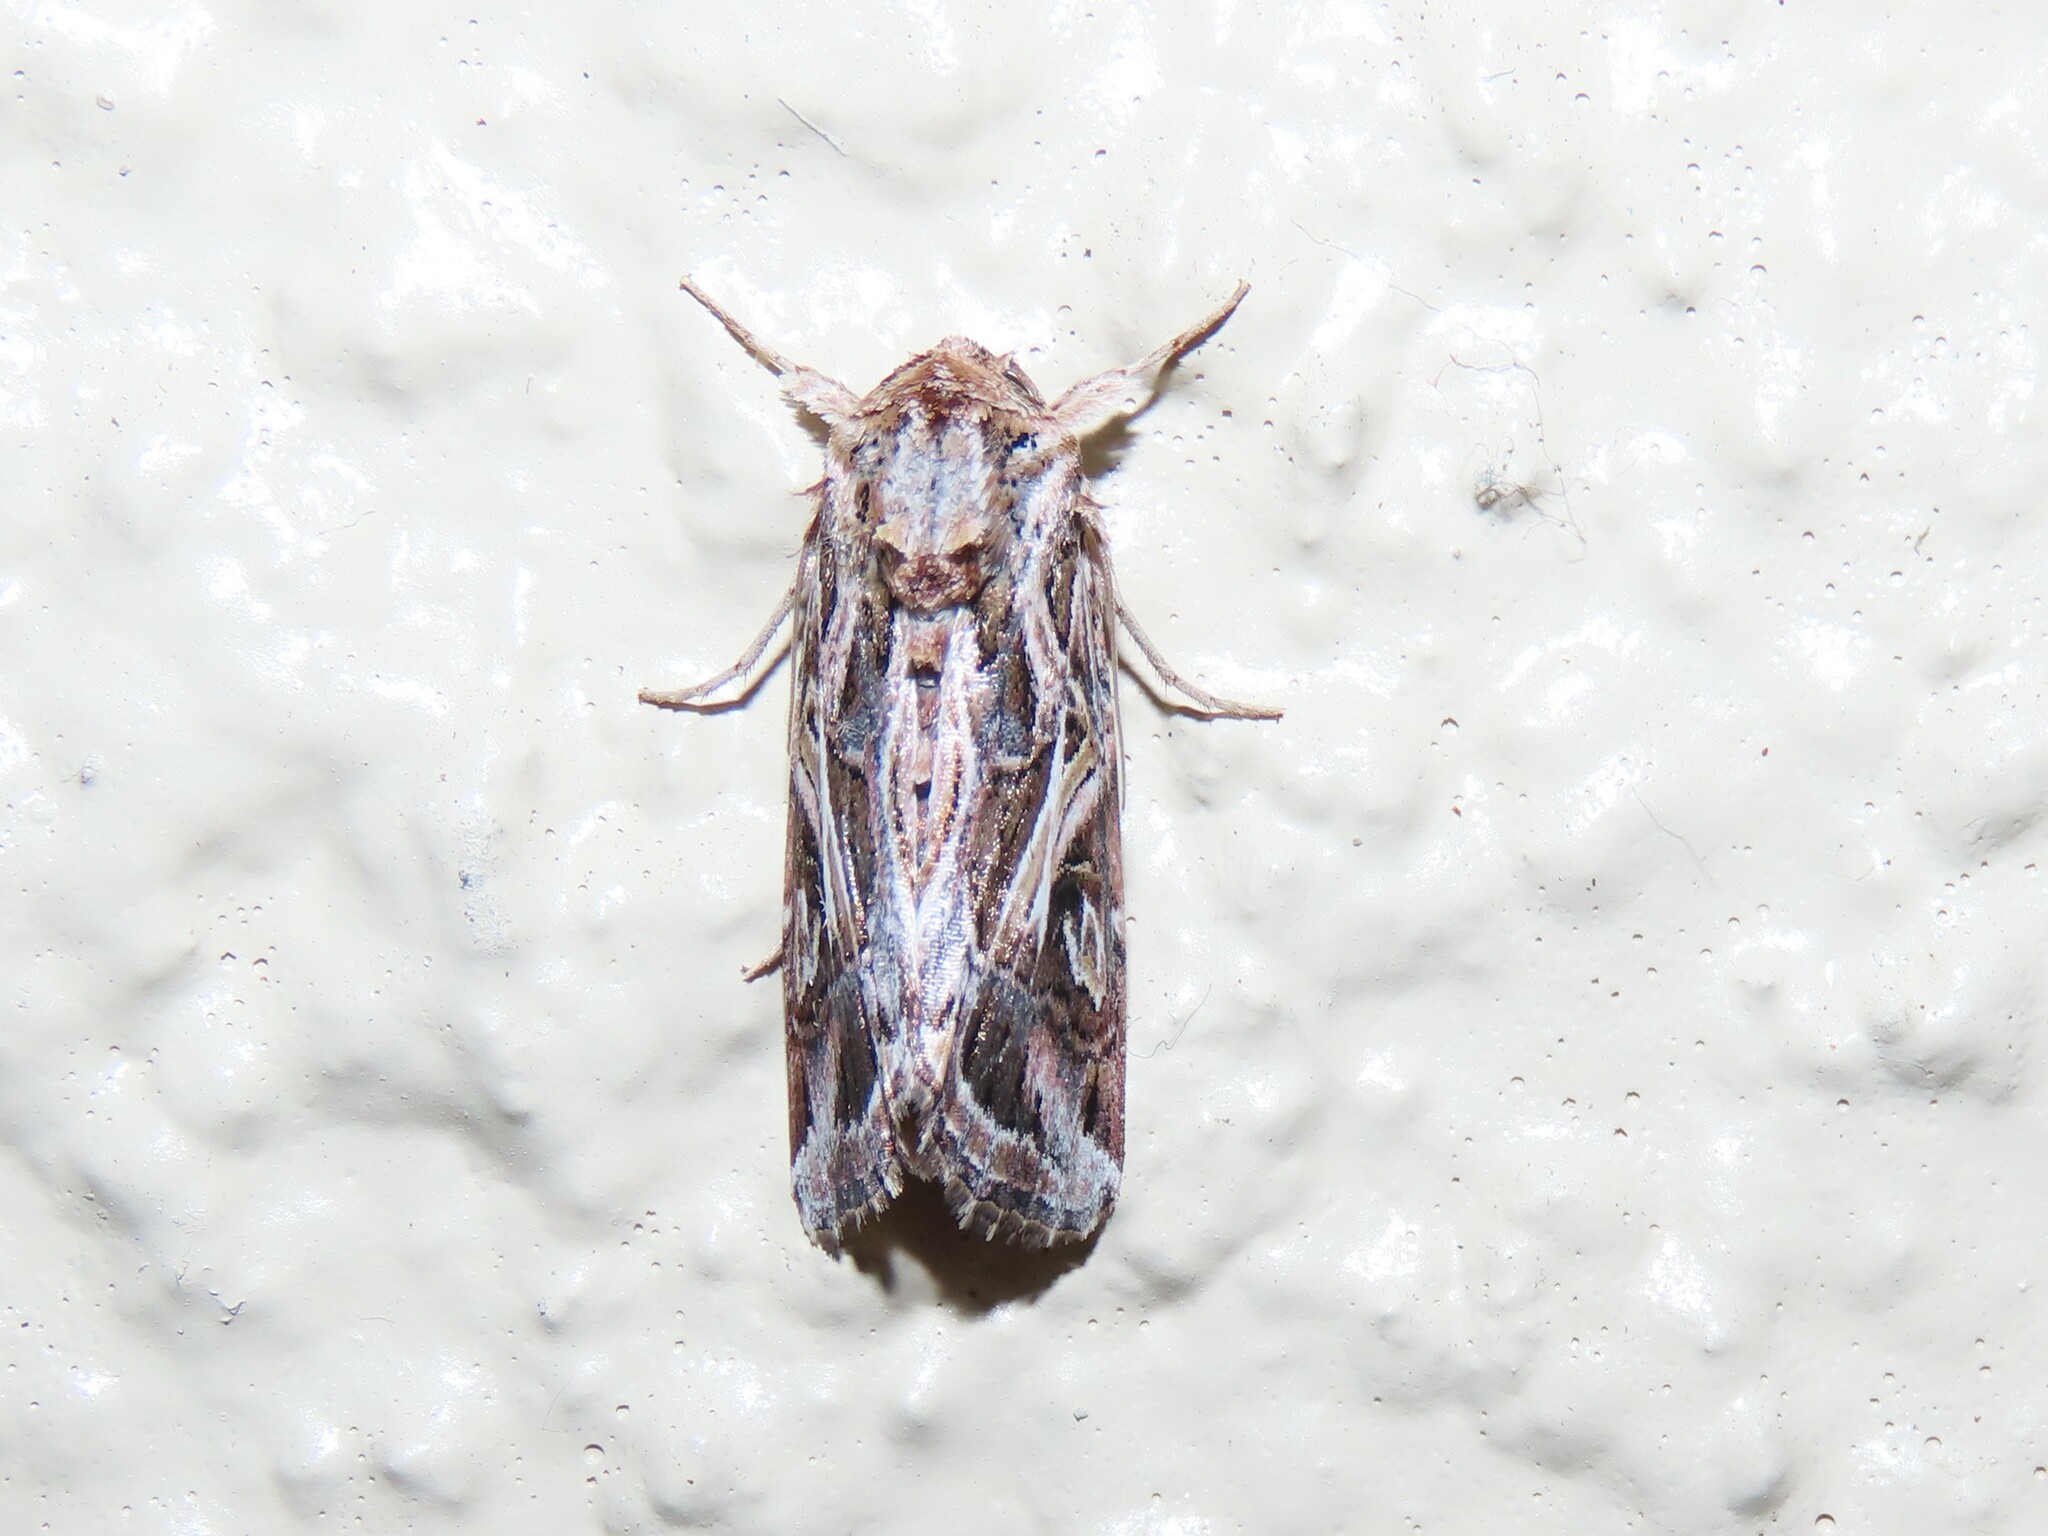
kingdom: Animalia
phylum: Arthropoda
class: Insecta
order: Lepidoptera
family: Noctuidae
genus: Spodoptera
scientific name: Spodoptera pulchella
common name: Caribbean armyworm moth
